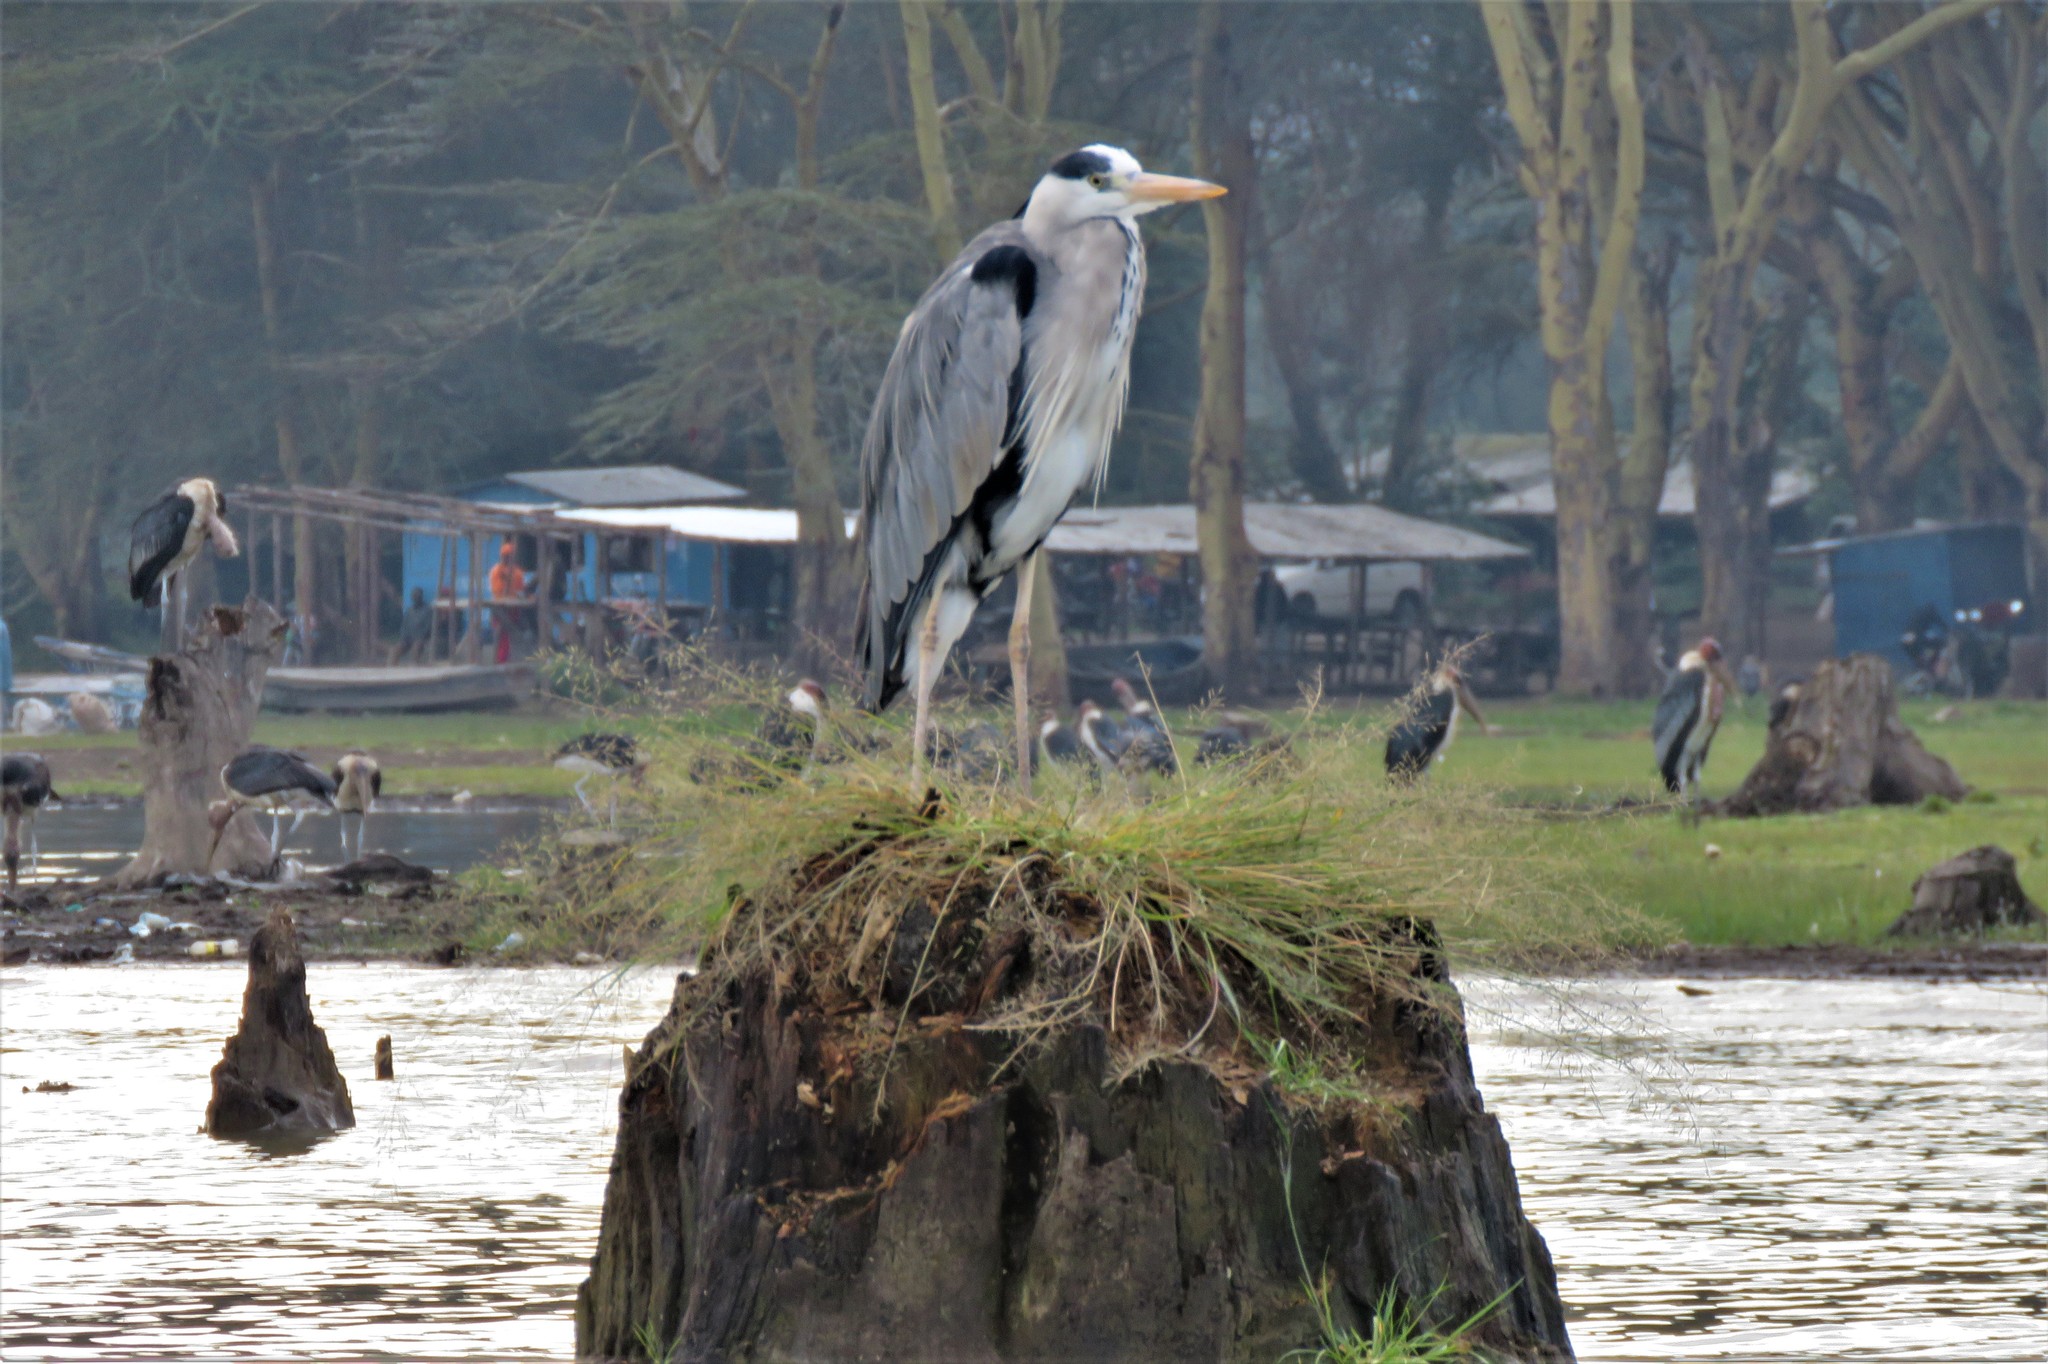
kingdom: Animalia
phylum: Chordata
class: Aves
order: Pelecaniformes
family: Ardeidae
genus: Ardea
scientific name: Ardea cinerea
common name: Grey heron
